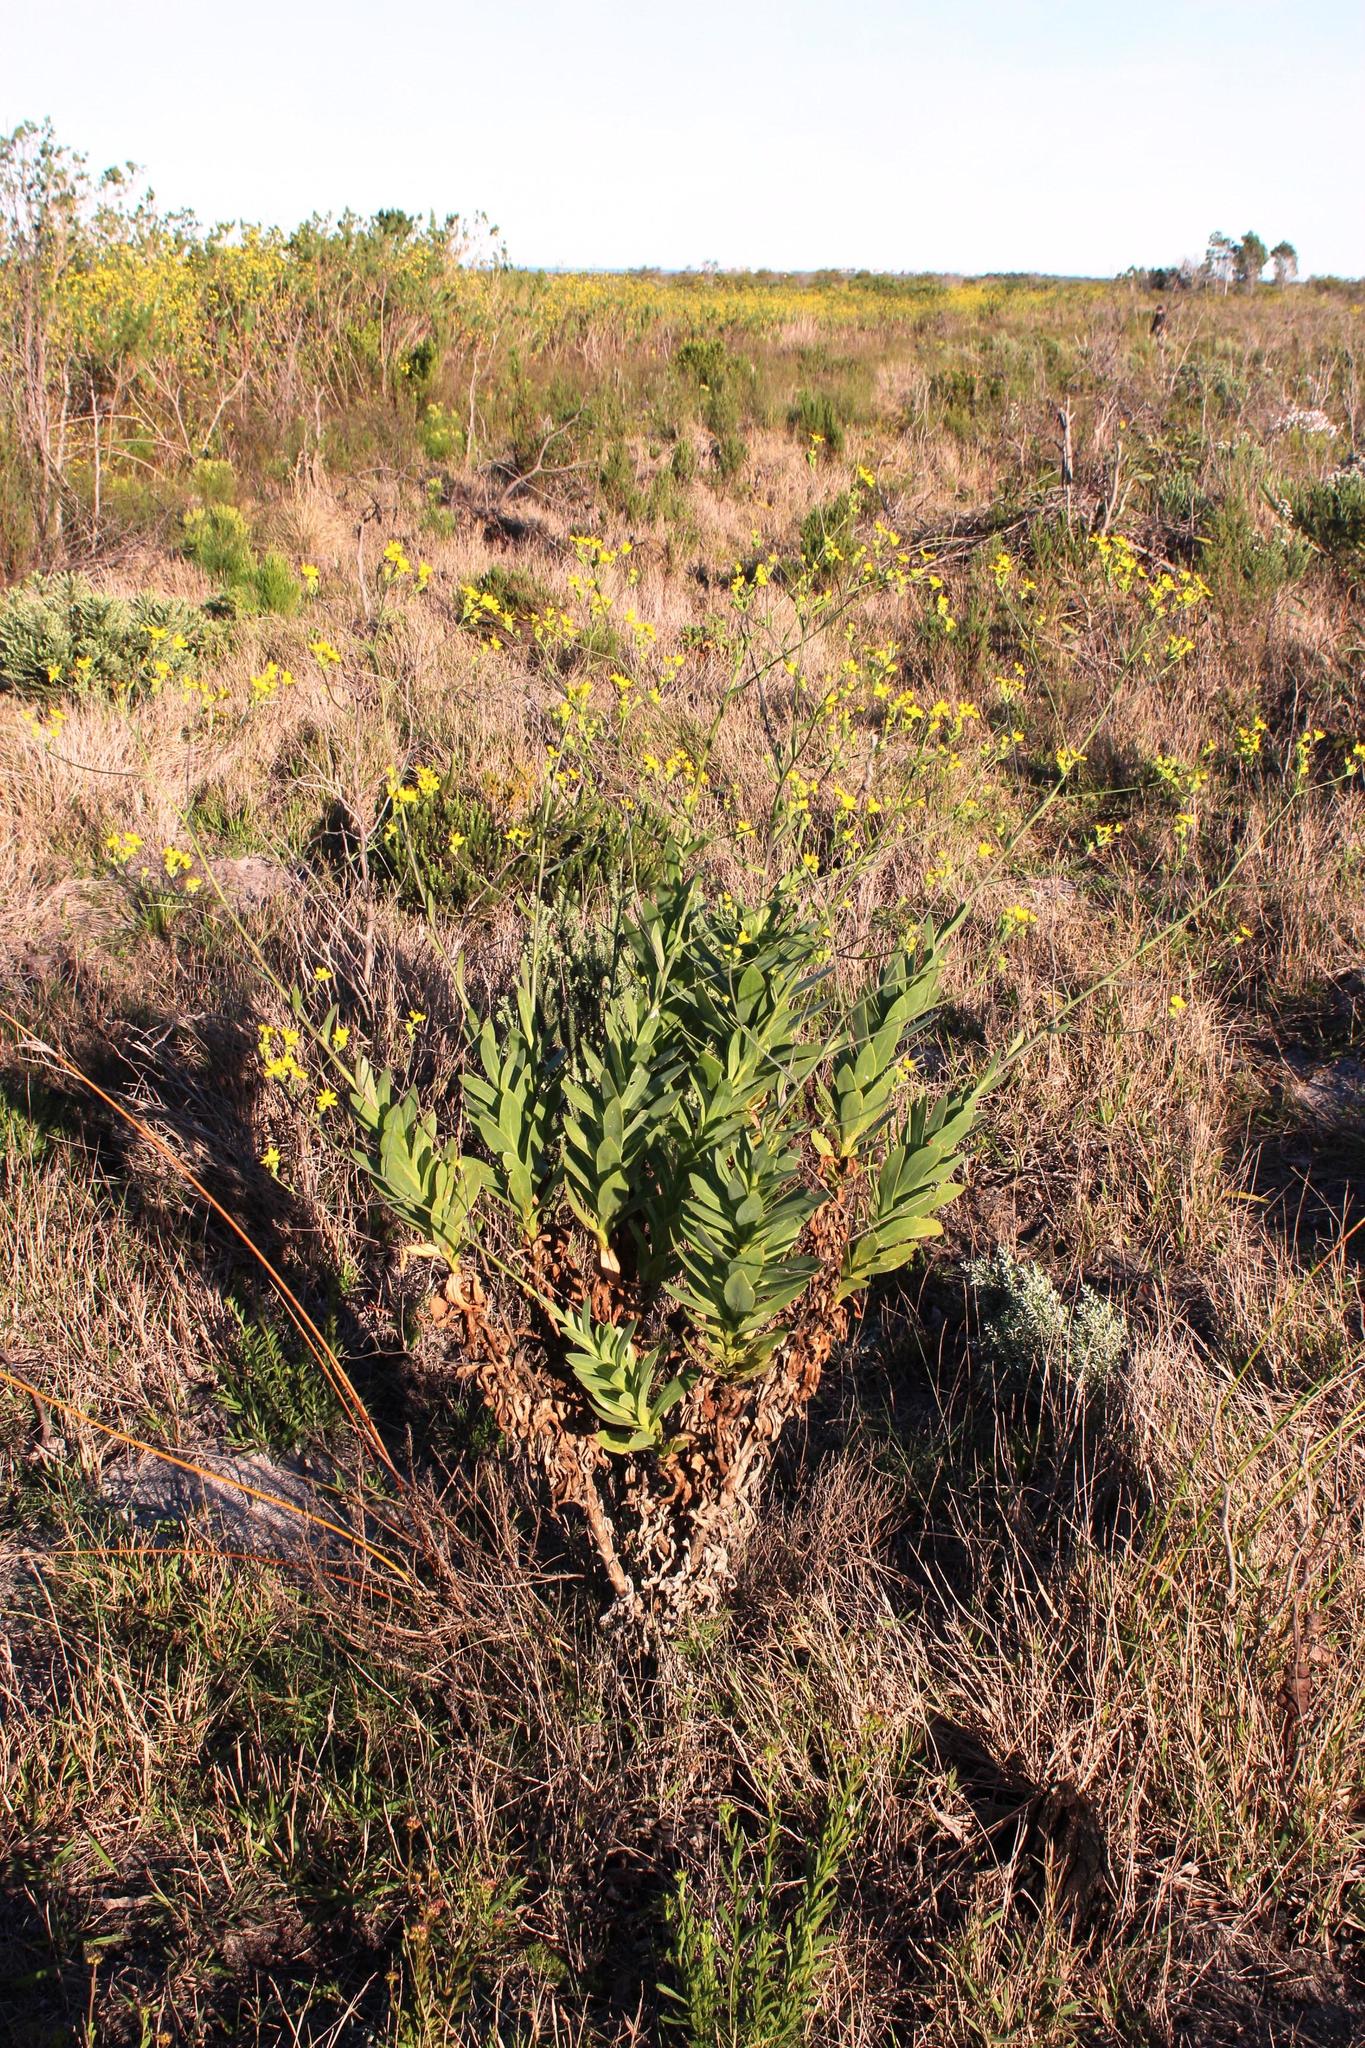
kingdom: Plantae
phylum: Tracheophyta
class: Magnoliopsida
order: Asterales
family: Asteraceae
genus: Othonna
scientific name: Othonna quinquedentata
